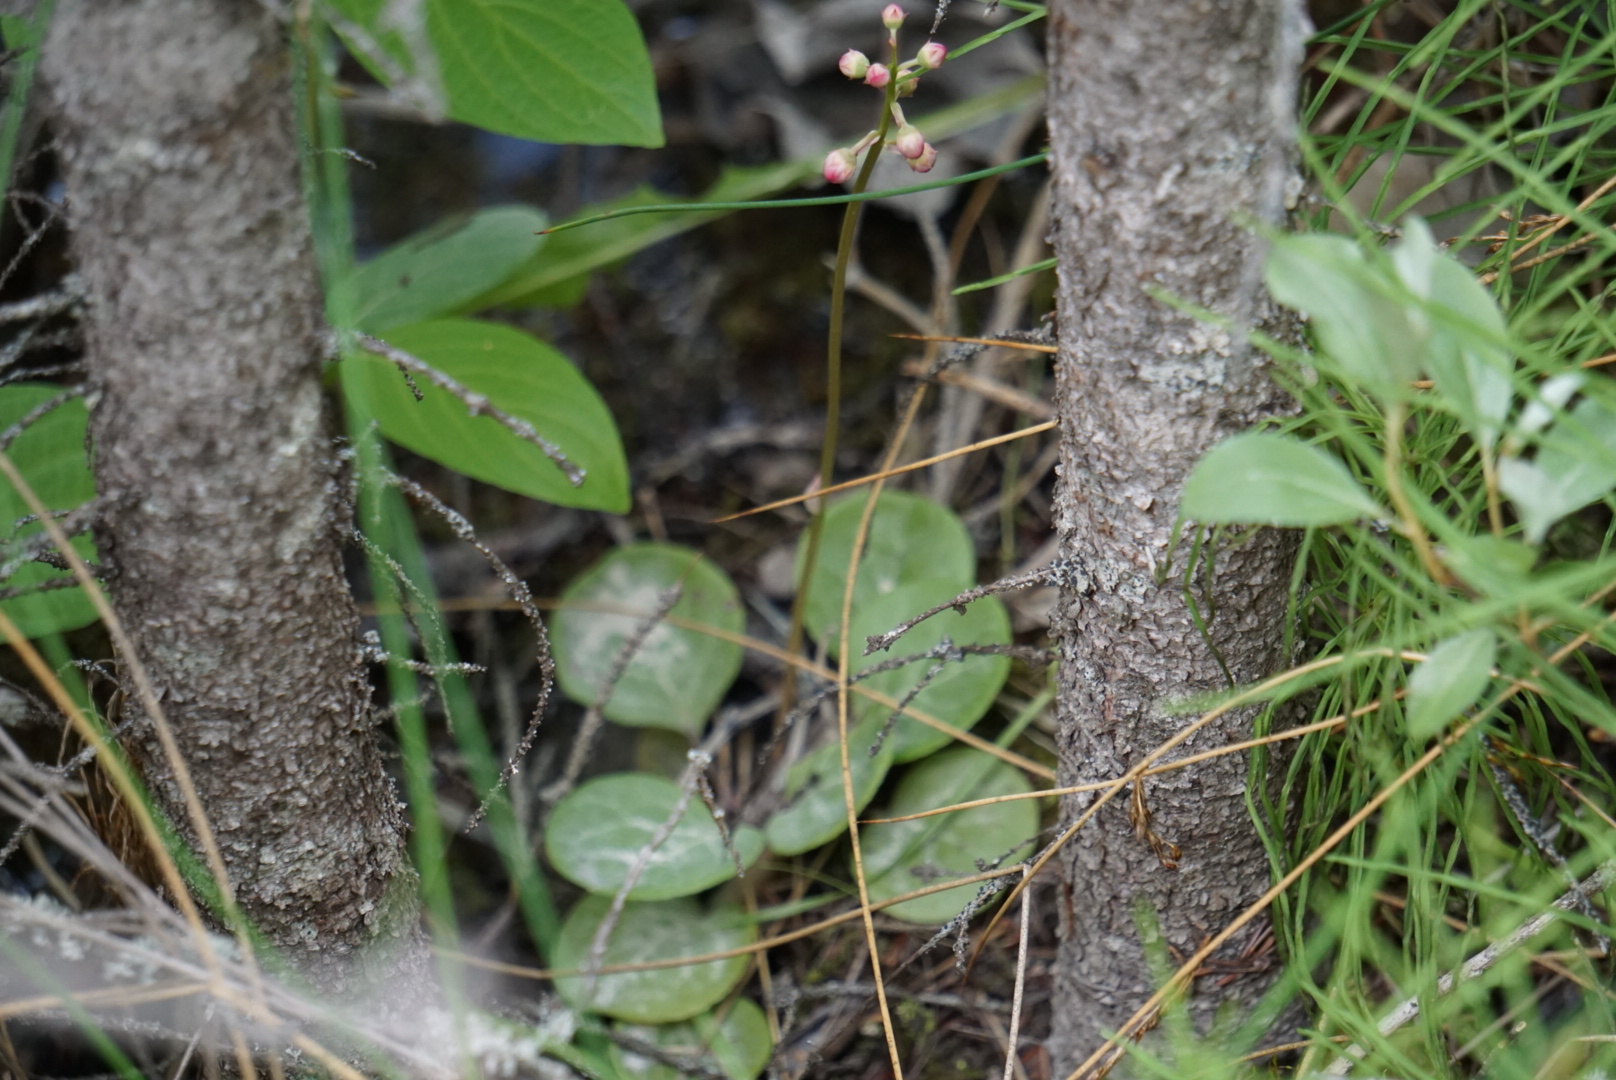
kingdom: Plantae
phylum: Tracheophyta
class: Magnoliopsida
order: Ericales
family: Ericaceae
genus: Pyrola
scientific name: Pyrola asarifolia
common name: Bog wintergreen
